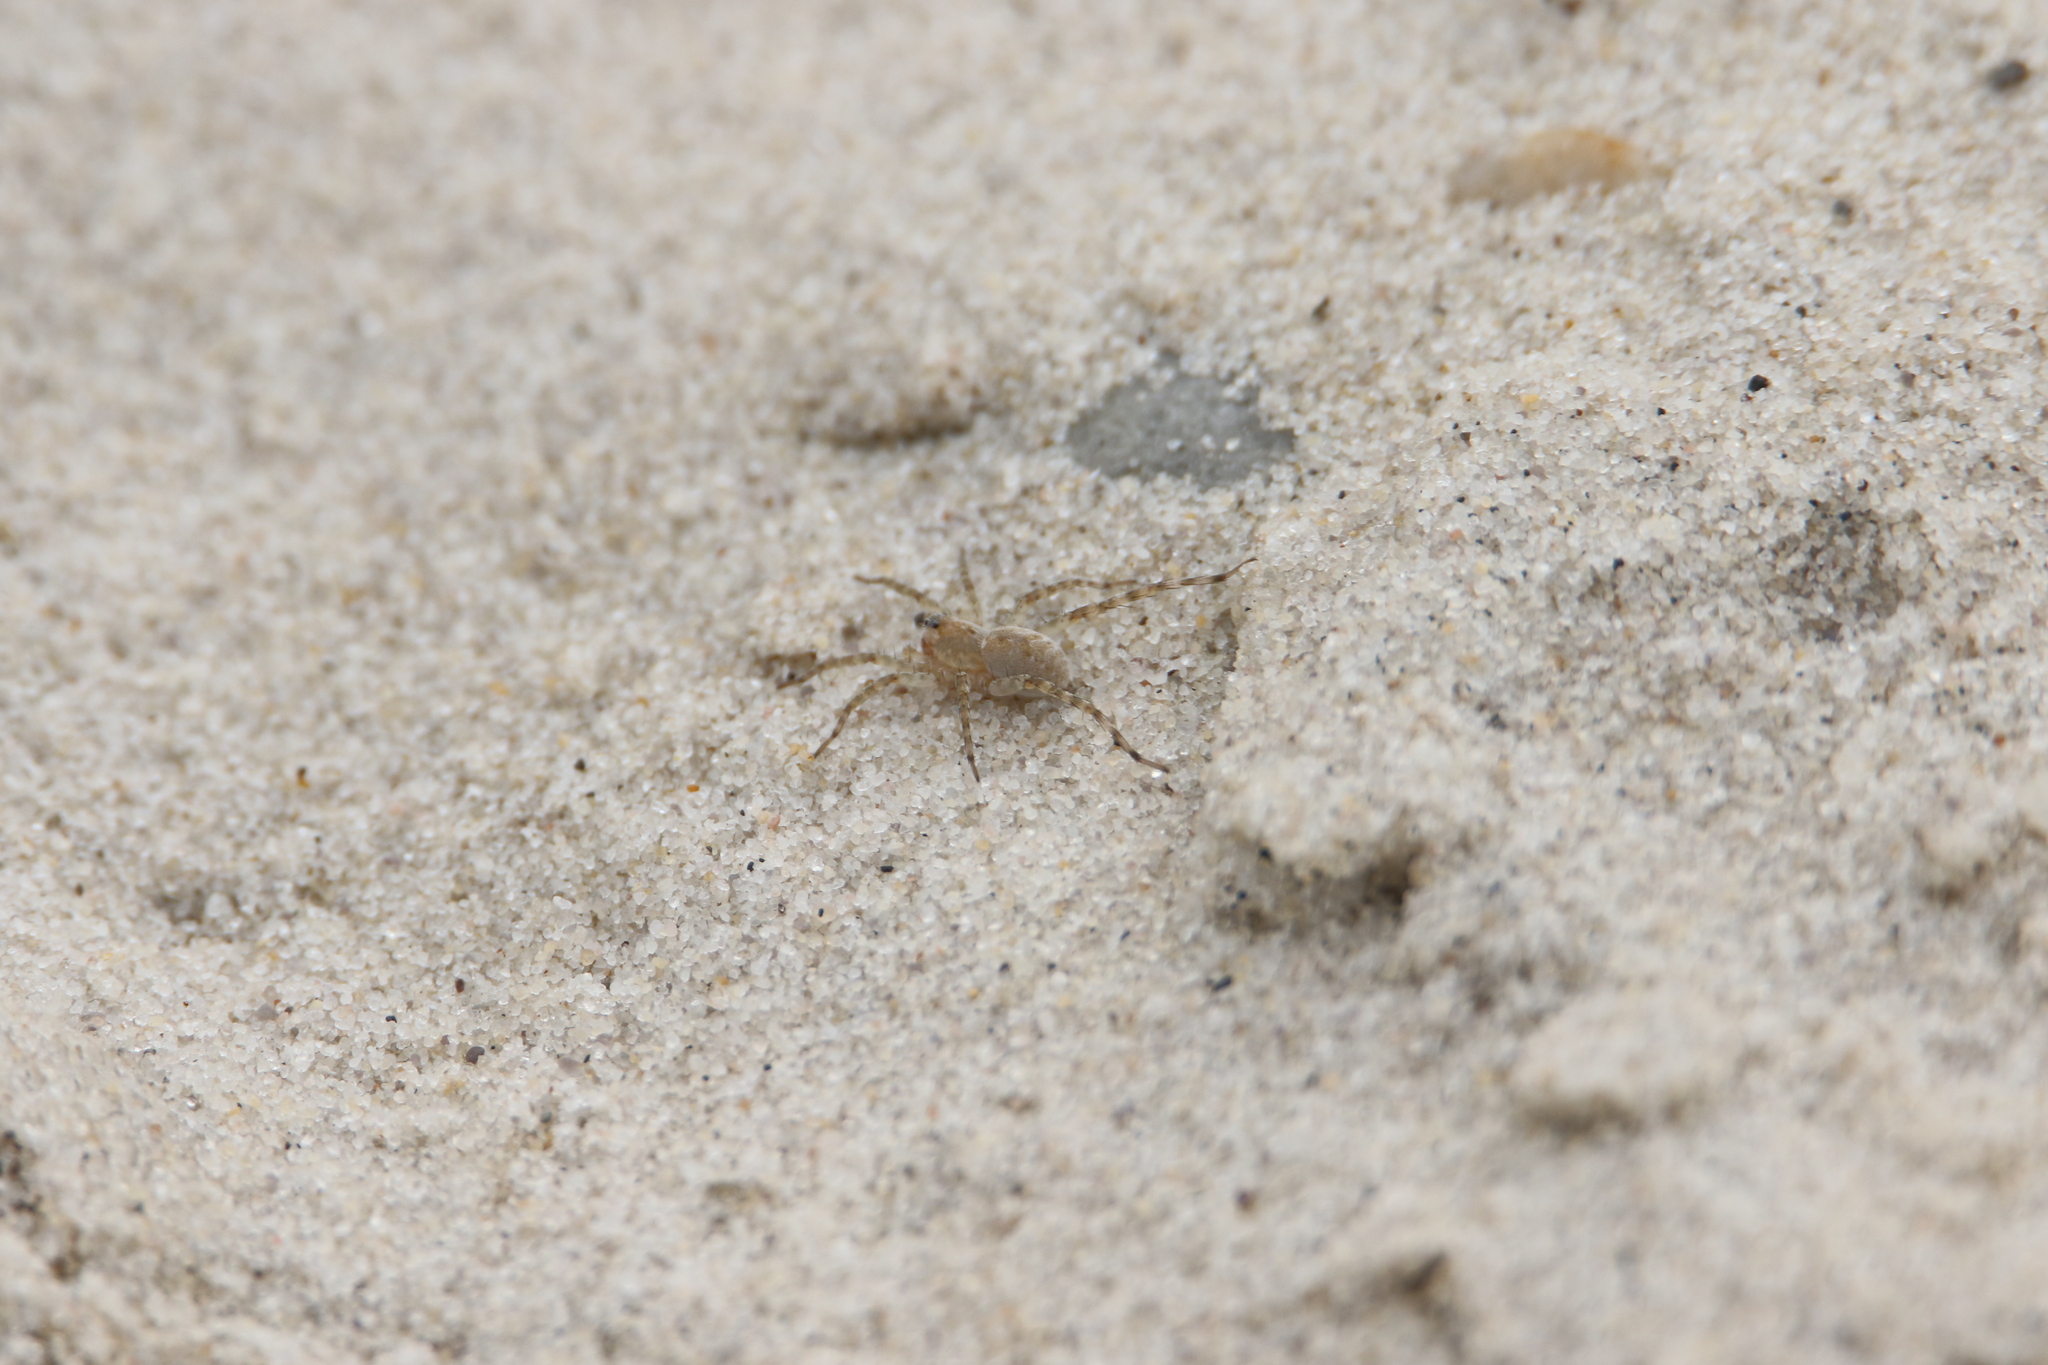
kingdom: Animalia
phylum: Arthropoda
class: Arachnida
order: Araneae
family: Lycosidae
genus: Arctosa
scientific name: Arctosa littoralis
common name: Wolf spiders
